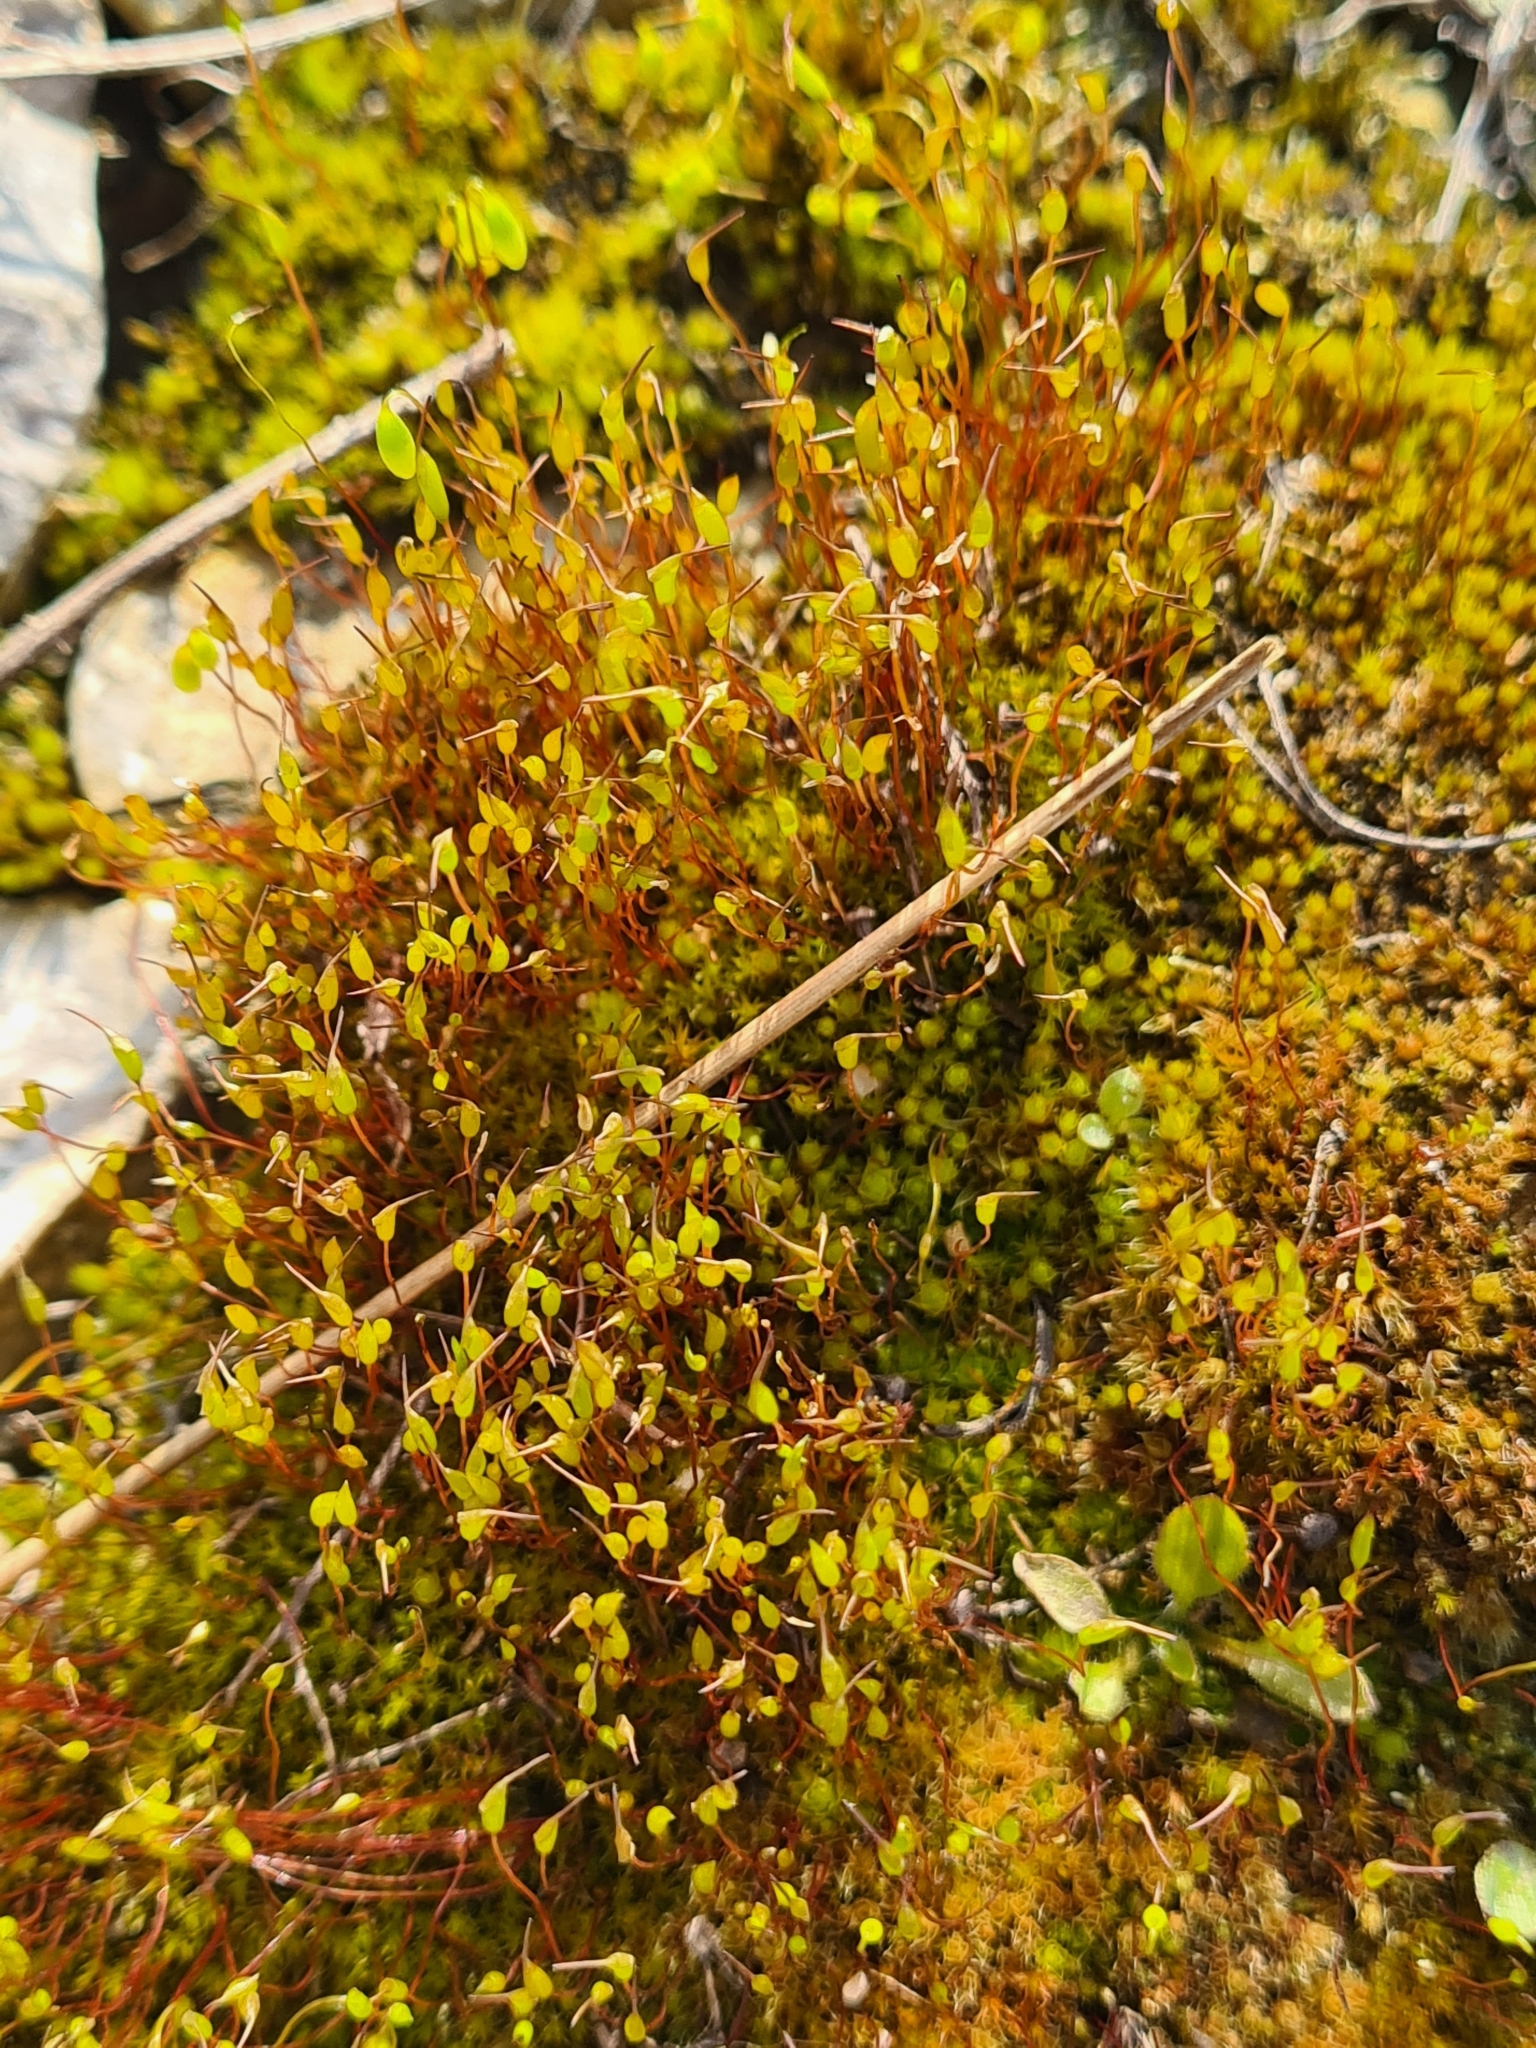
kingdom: Plantae
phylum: Bryophyta
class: Bryopsida
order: Dicranales
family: Ditrichaceae
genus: Ceratodon
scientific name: Ceratodon purpureus
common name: Redshank
